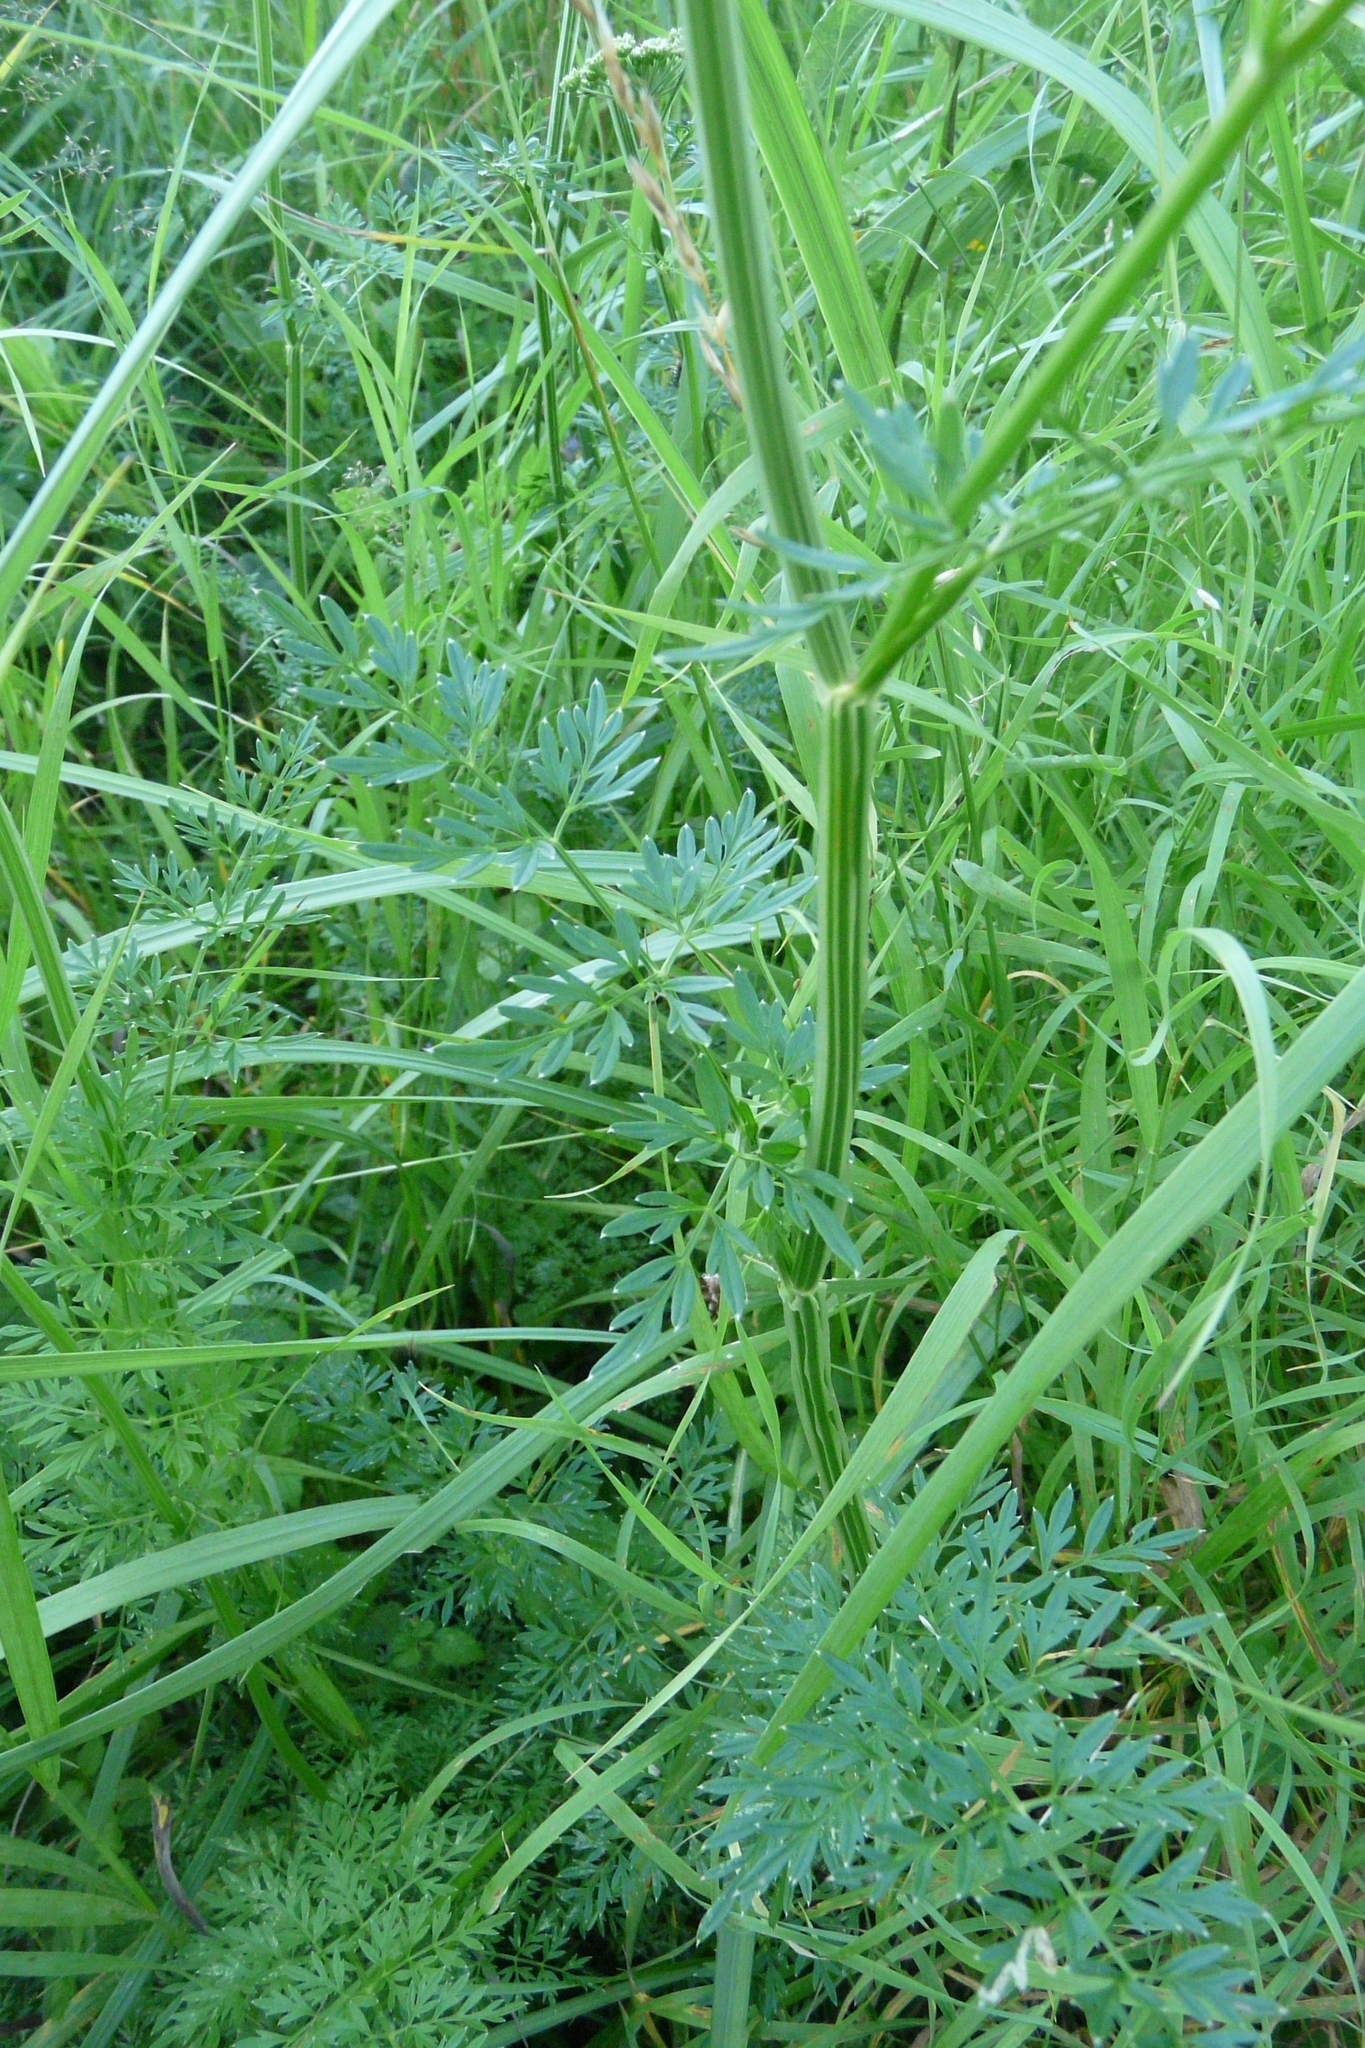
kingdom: Plantae
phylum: Tracheophyta
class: Magnoliopsida
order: Apiales
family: Apiaceae
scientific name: Apiaceae
